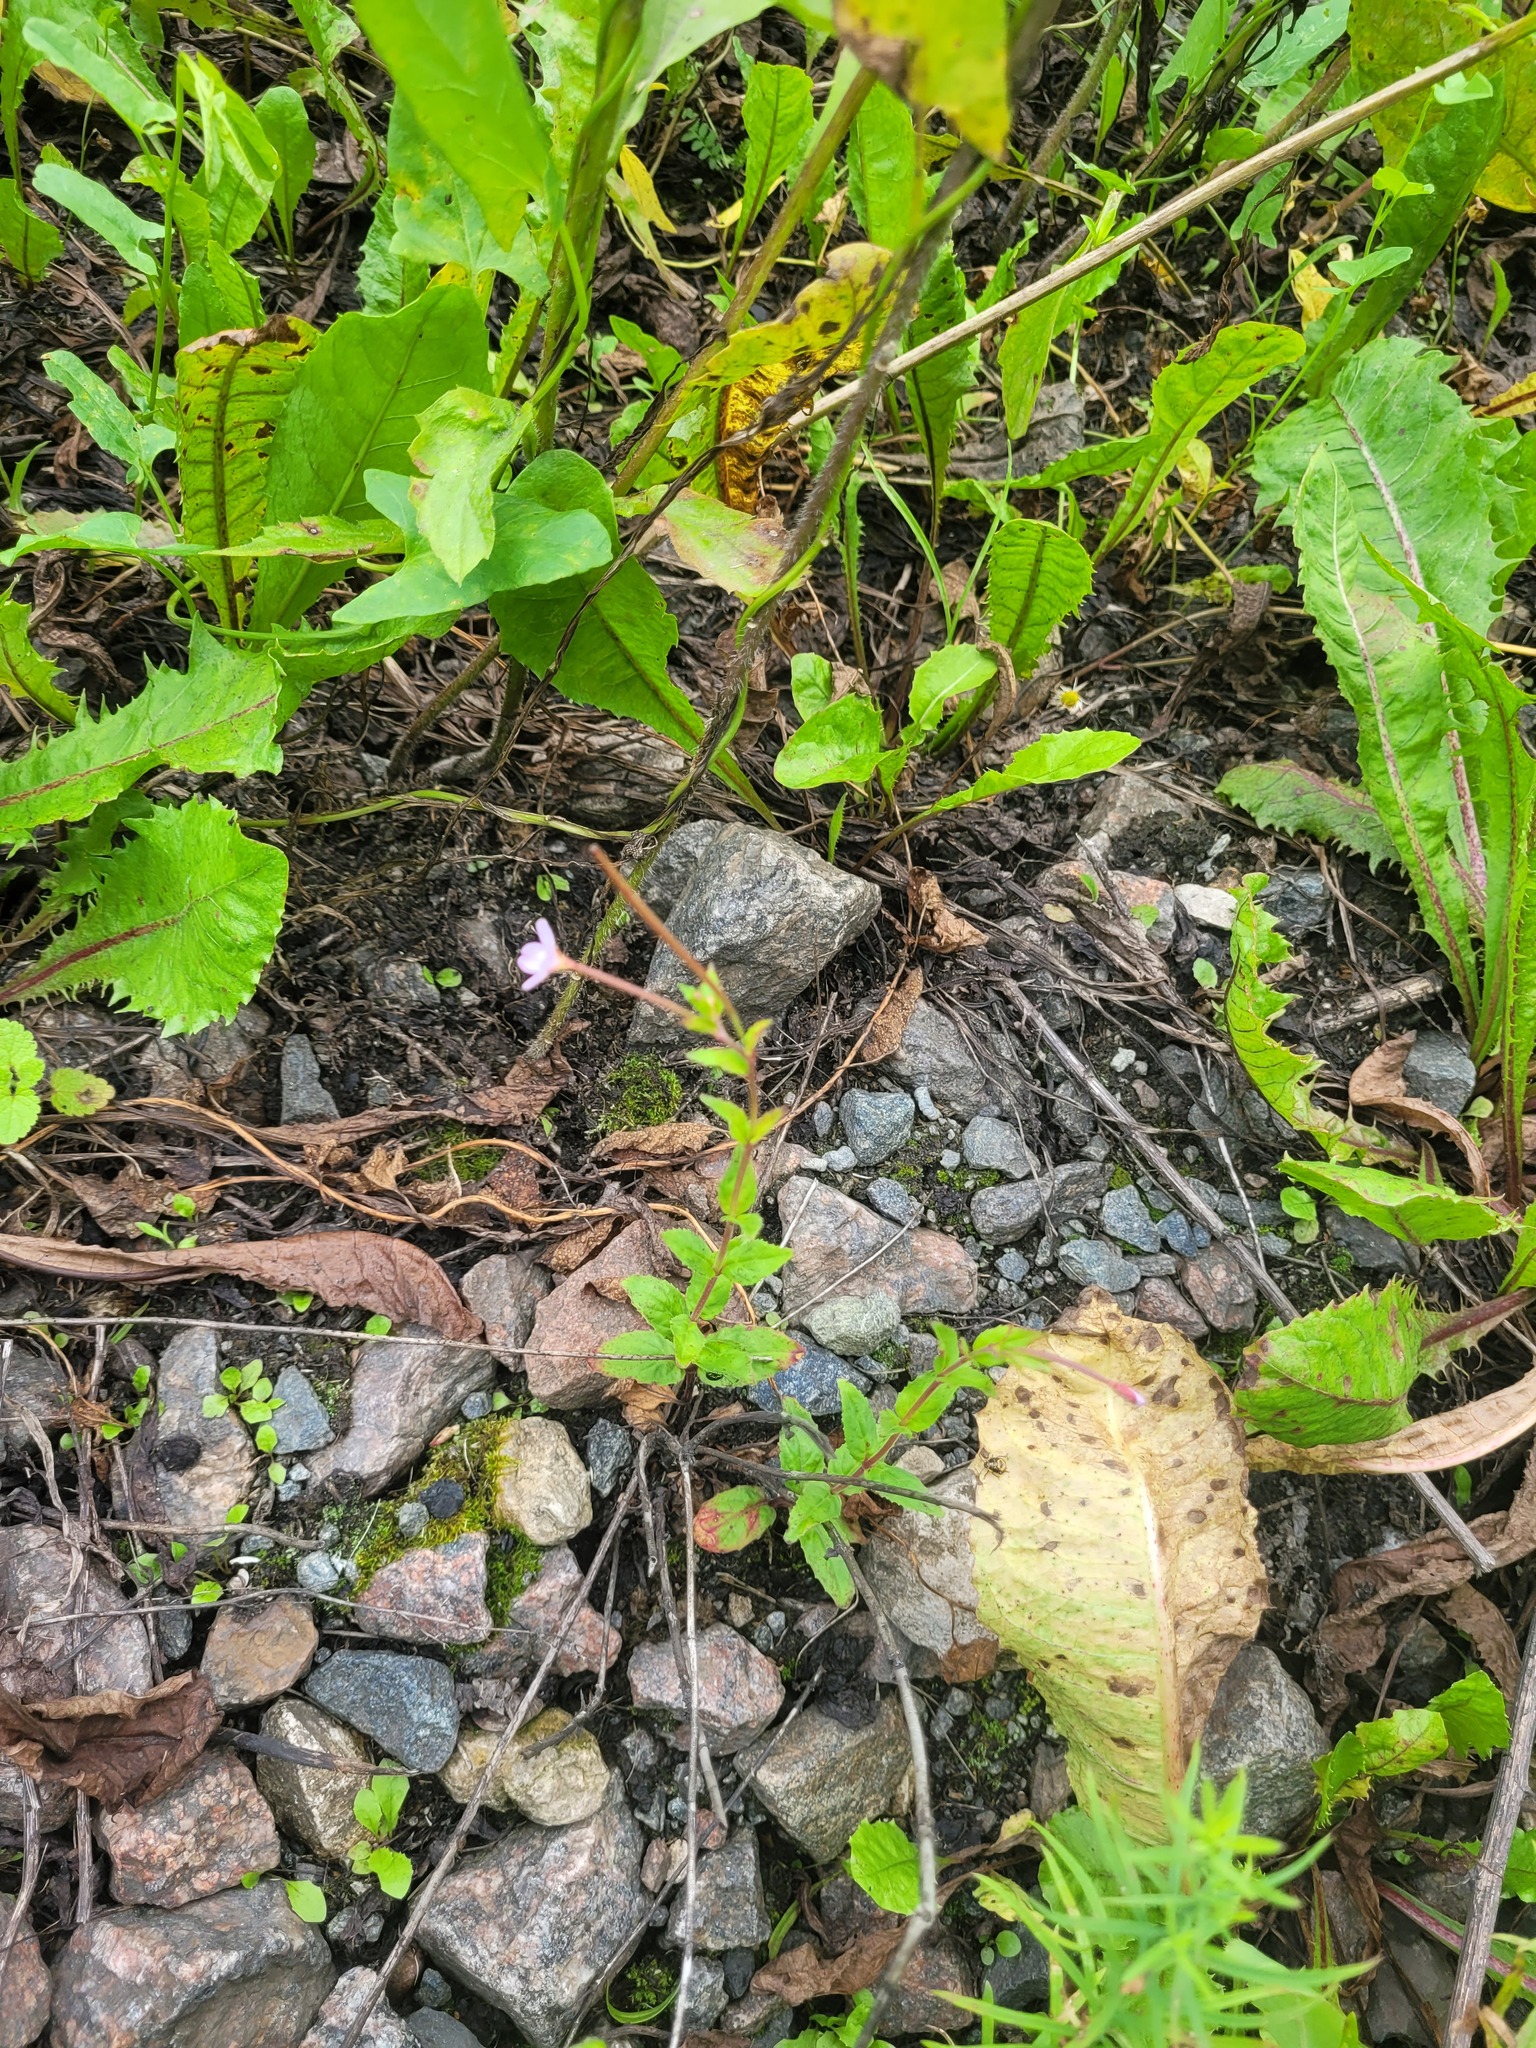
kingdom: Plantae
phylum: Tracheophyta
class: Magnoliopsida
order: Myrtales
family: Onagraceae
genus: Epilobium
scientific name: Epilobium montanum
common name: Broad-leaved willowherb
